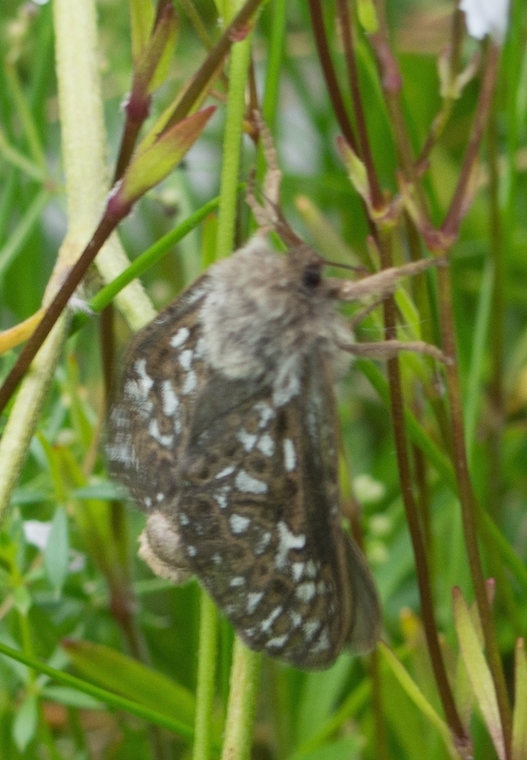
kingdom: Animalia
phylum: Arthropoda
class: Insecta
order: Lepidoptera
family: Hepialidae
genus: Pharmacis
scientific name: Pharmacis carna
